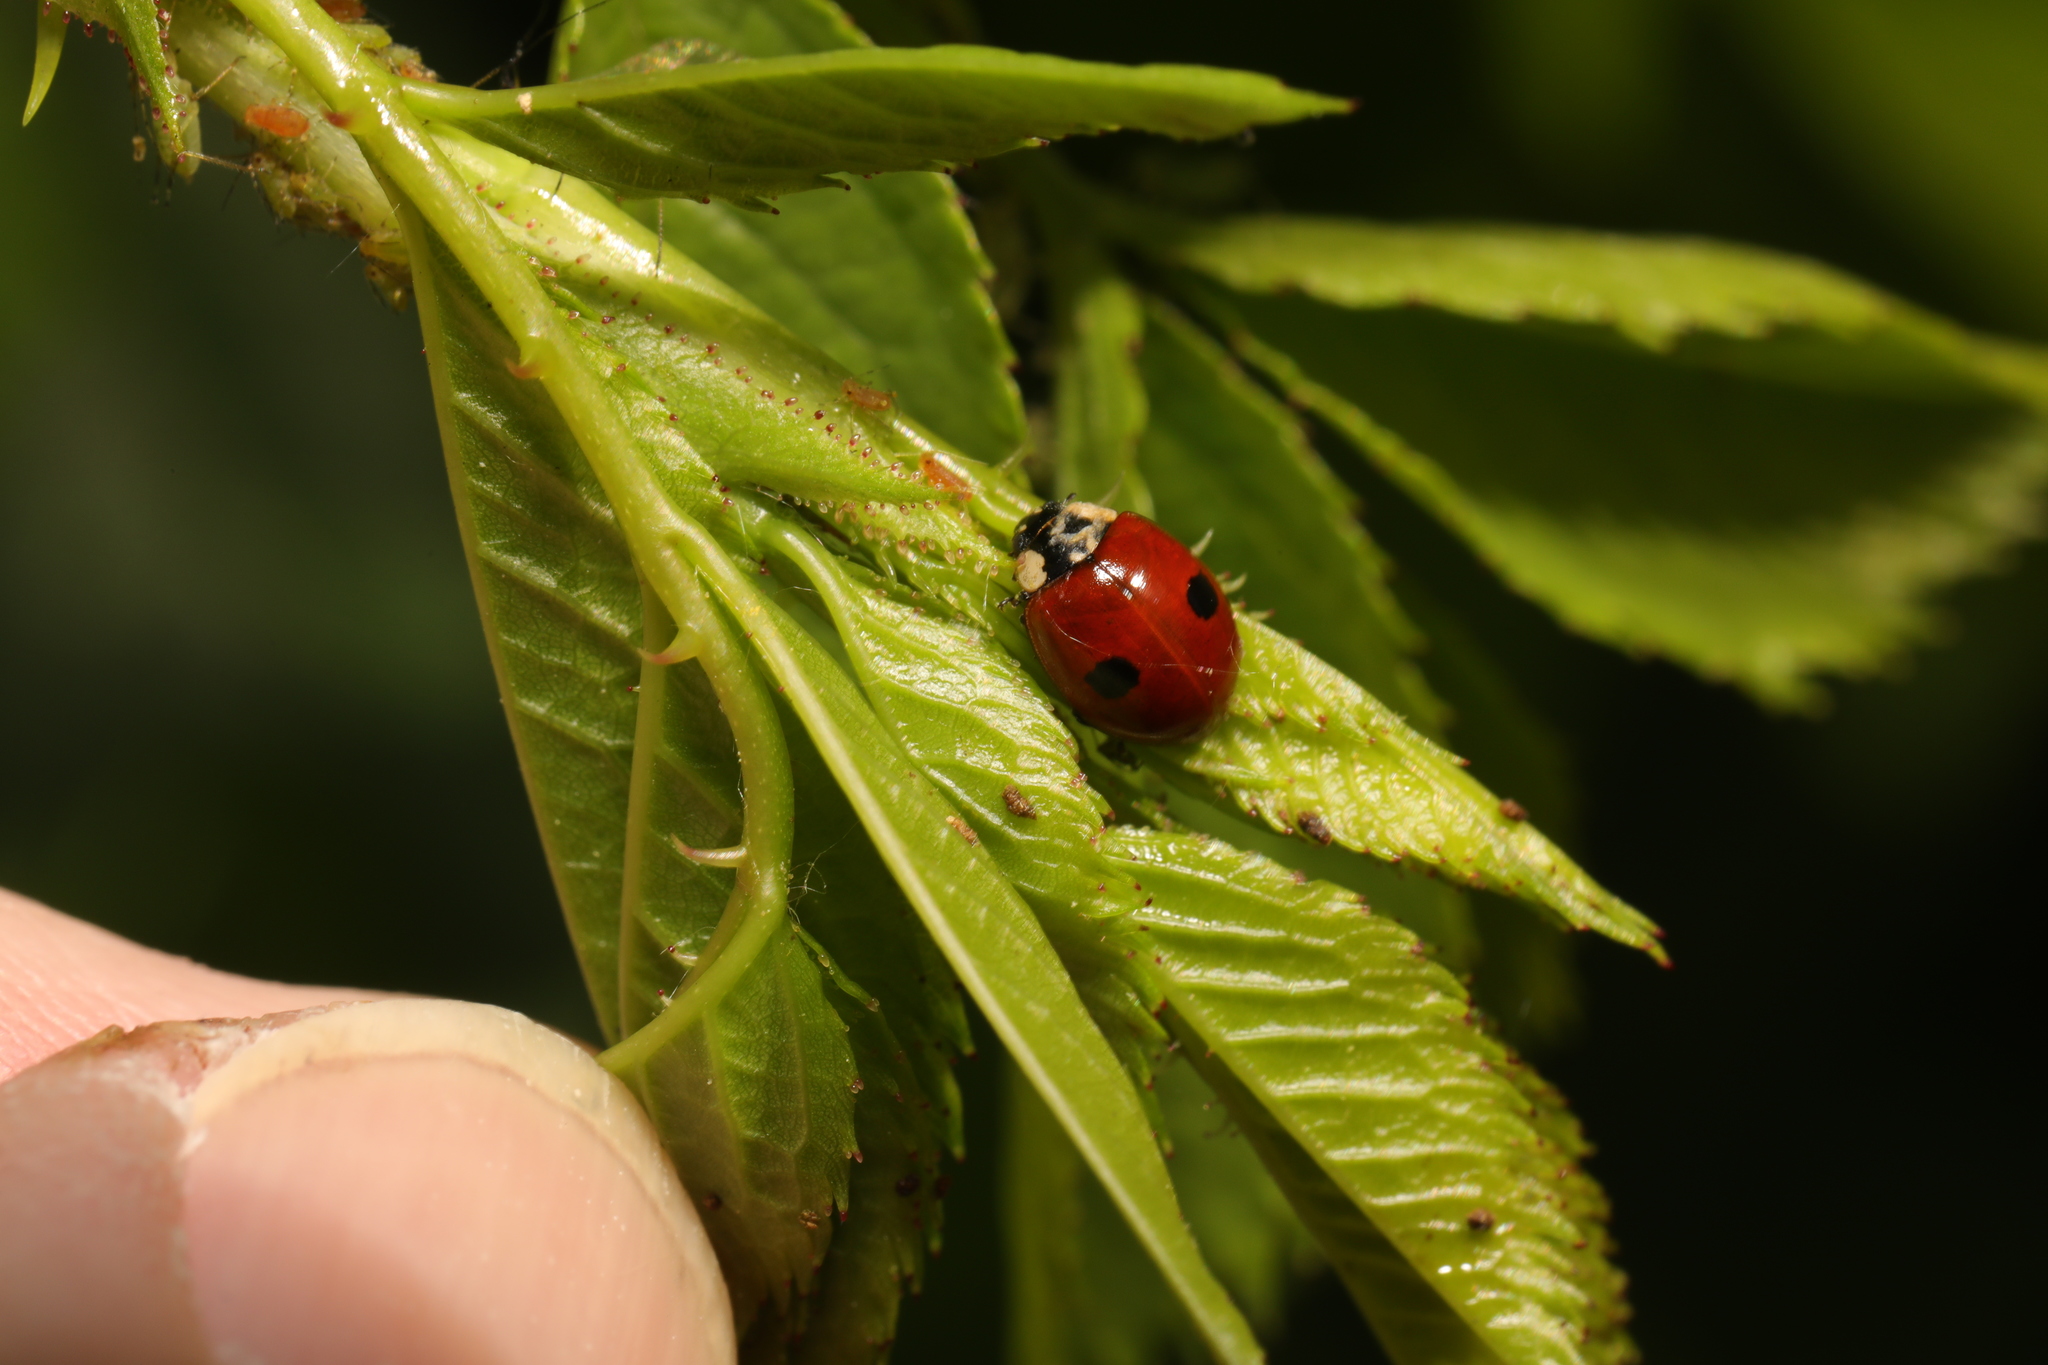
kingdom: Animalia
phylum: Arthropoda
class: Insecta
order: Coleoptera
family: Coccinellidae
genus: Adalia
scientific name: Adalia bipunctata
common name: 2-spot ladybird
